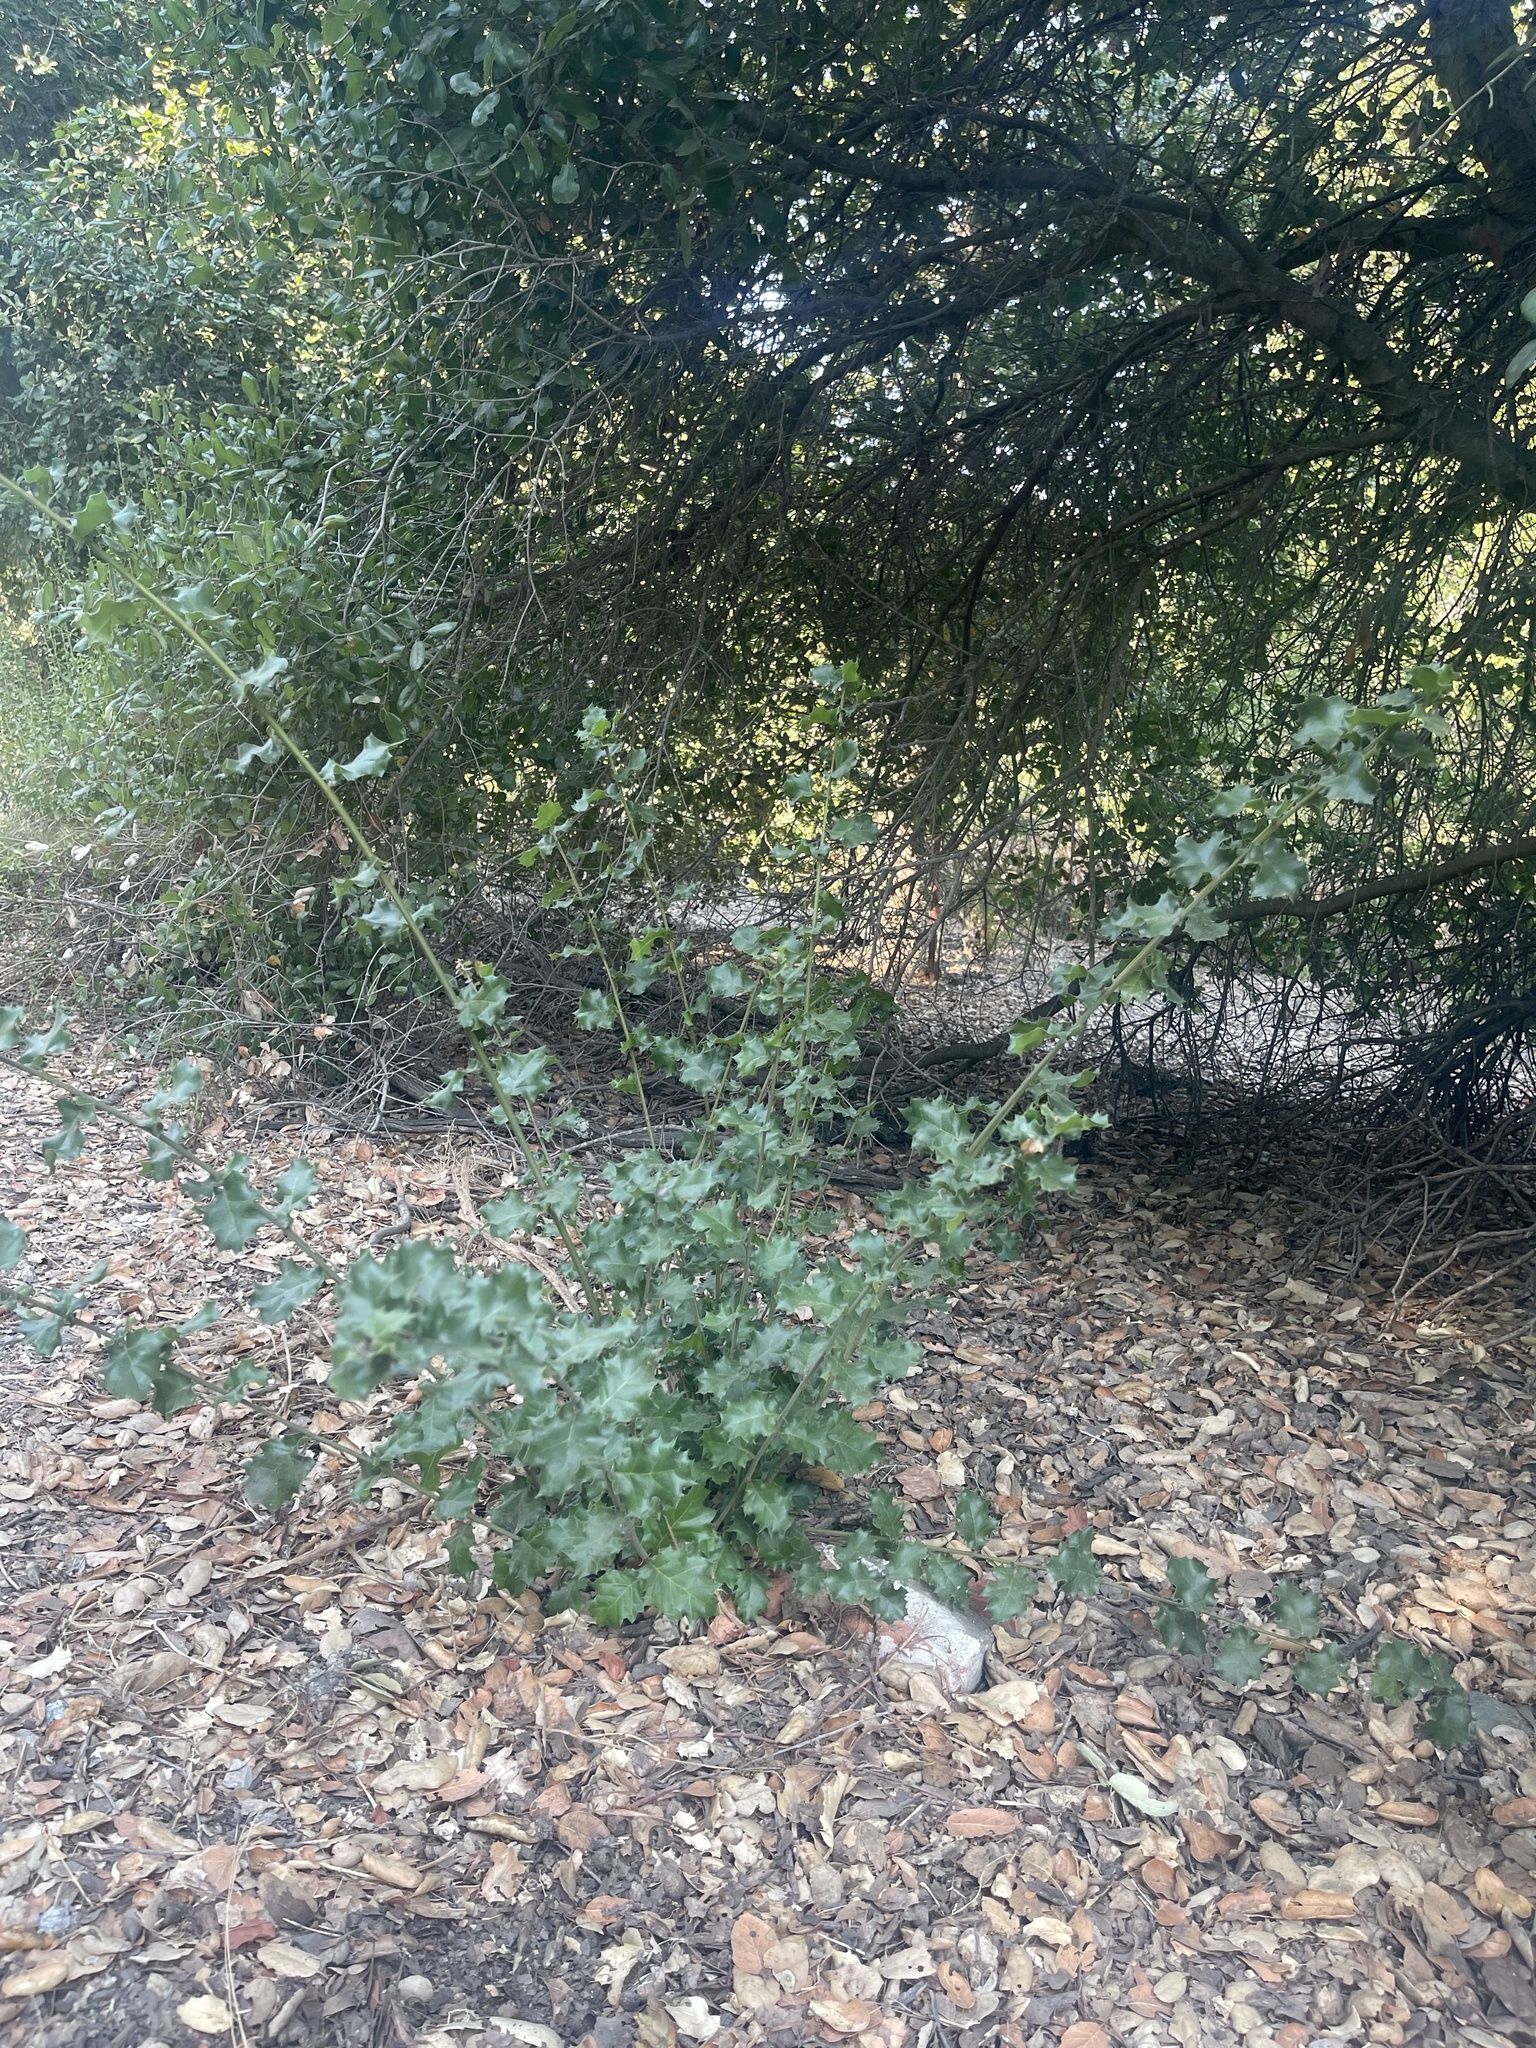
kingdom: Plantae
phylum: Tracheophyta
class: Magnoliopsida
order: Fagales
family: Fagaceae
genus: Quercus
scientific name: Quercus agrifolia
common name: California live oak
